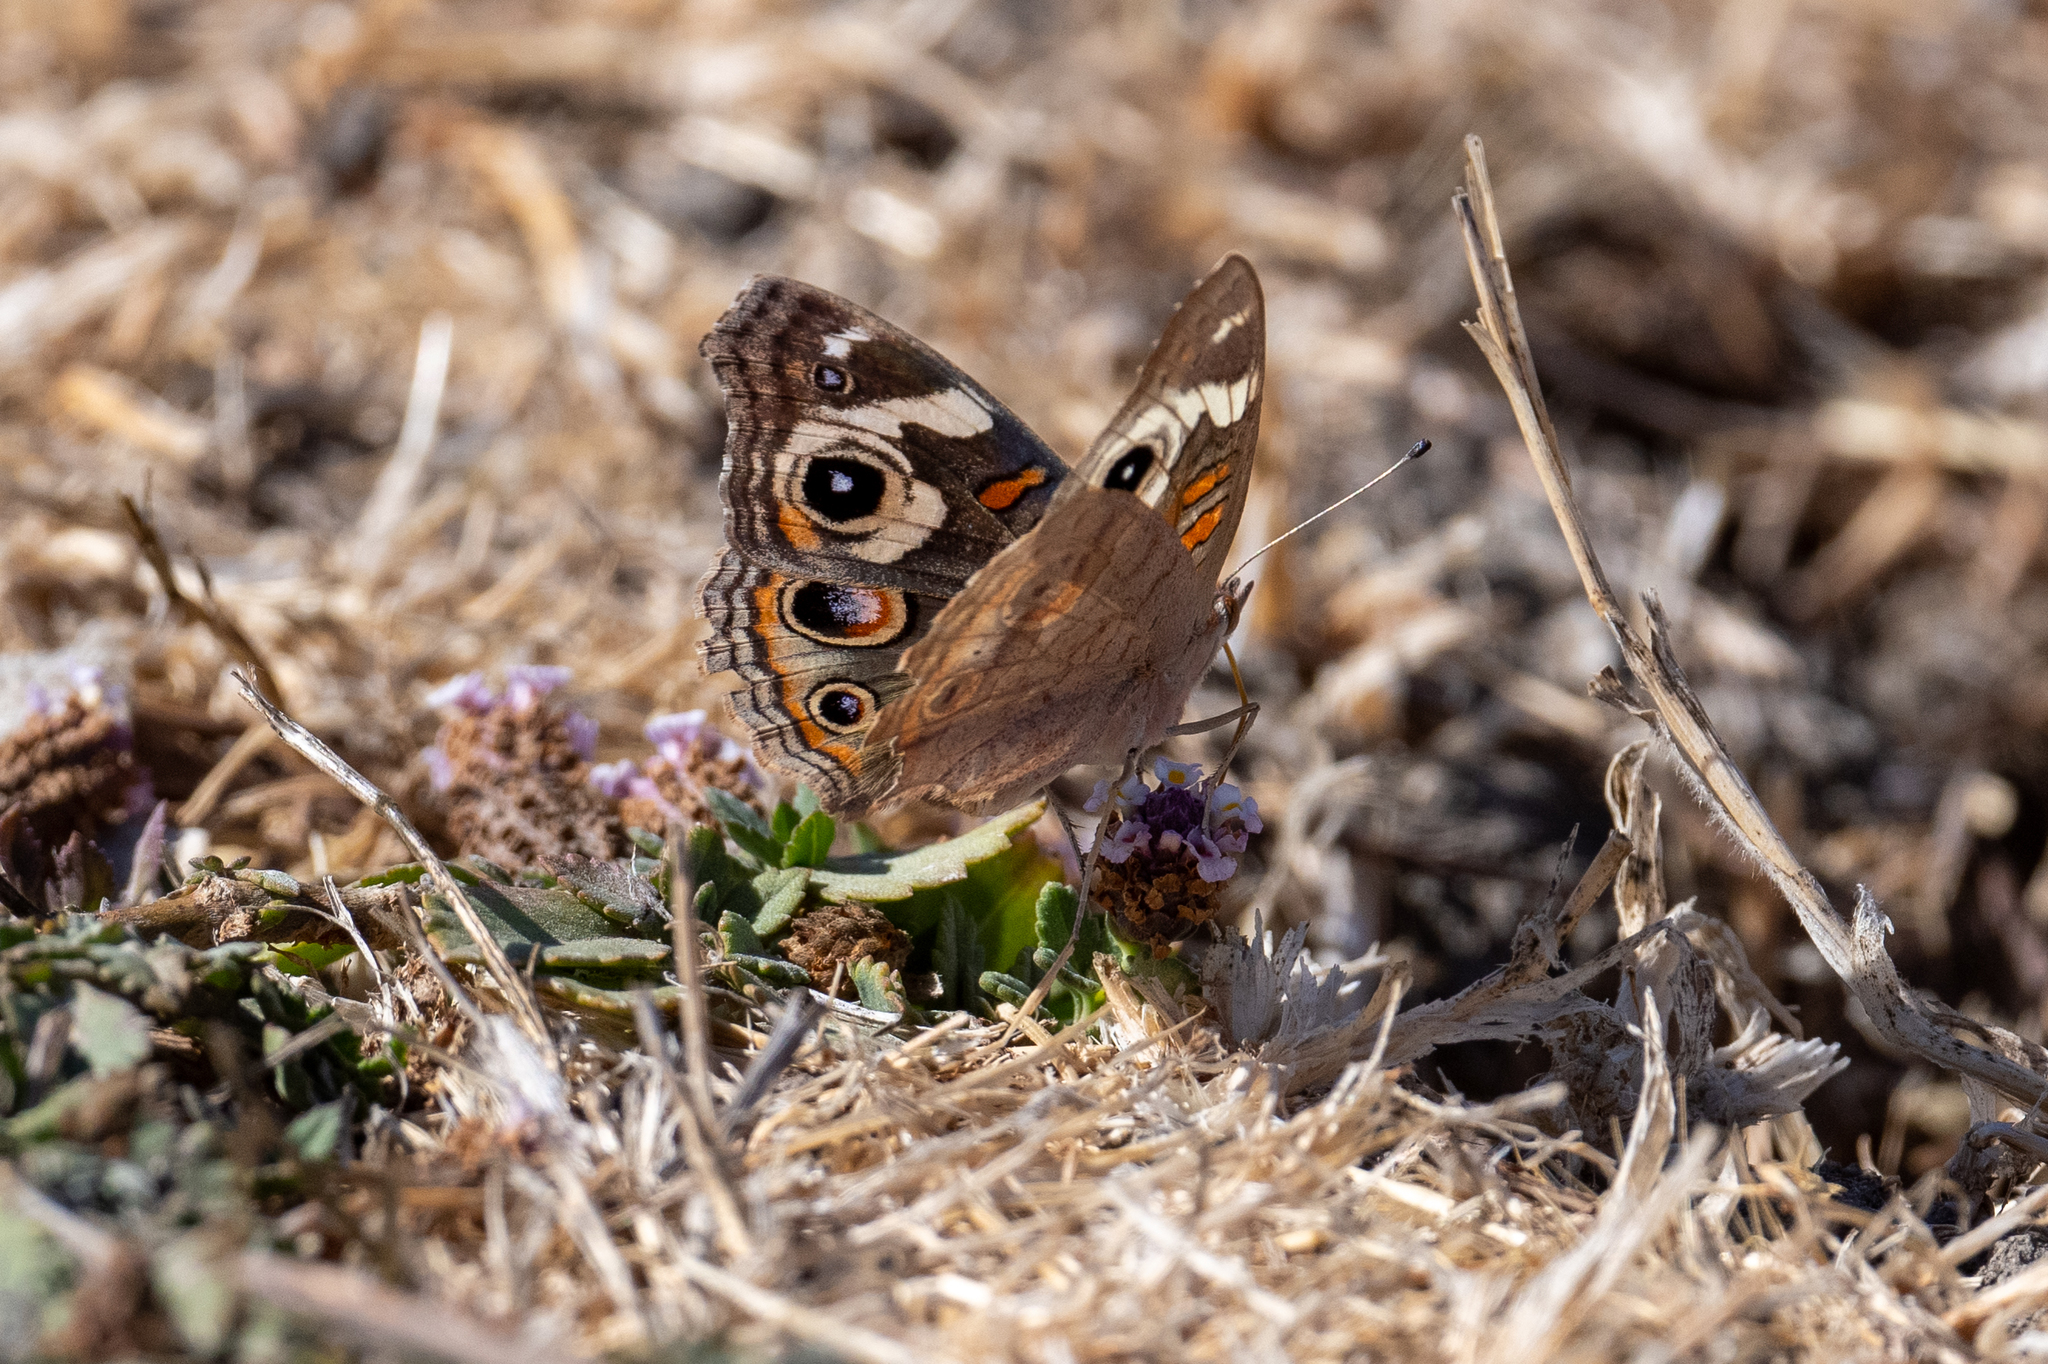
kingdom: Animalia
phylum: Arthropoda
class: Insecta
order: Lepidoptera
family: Nymphalidae
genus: Junonia
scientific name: Junonia grisea
